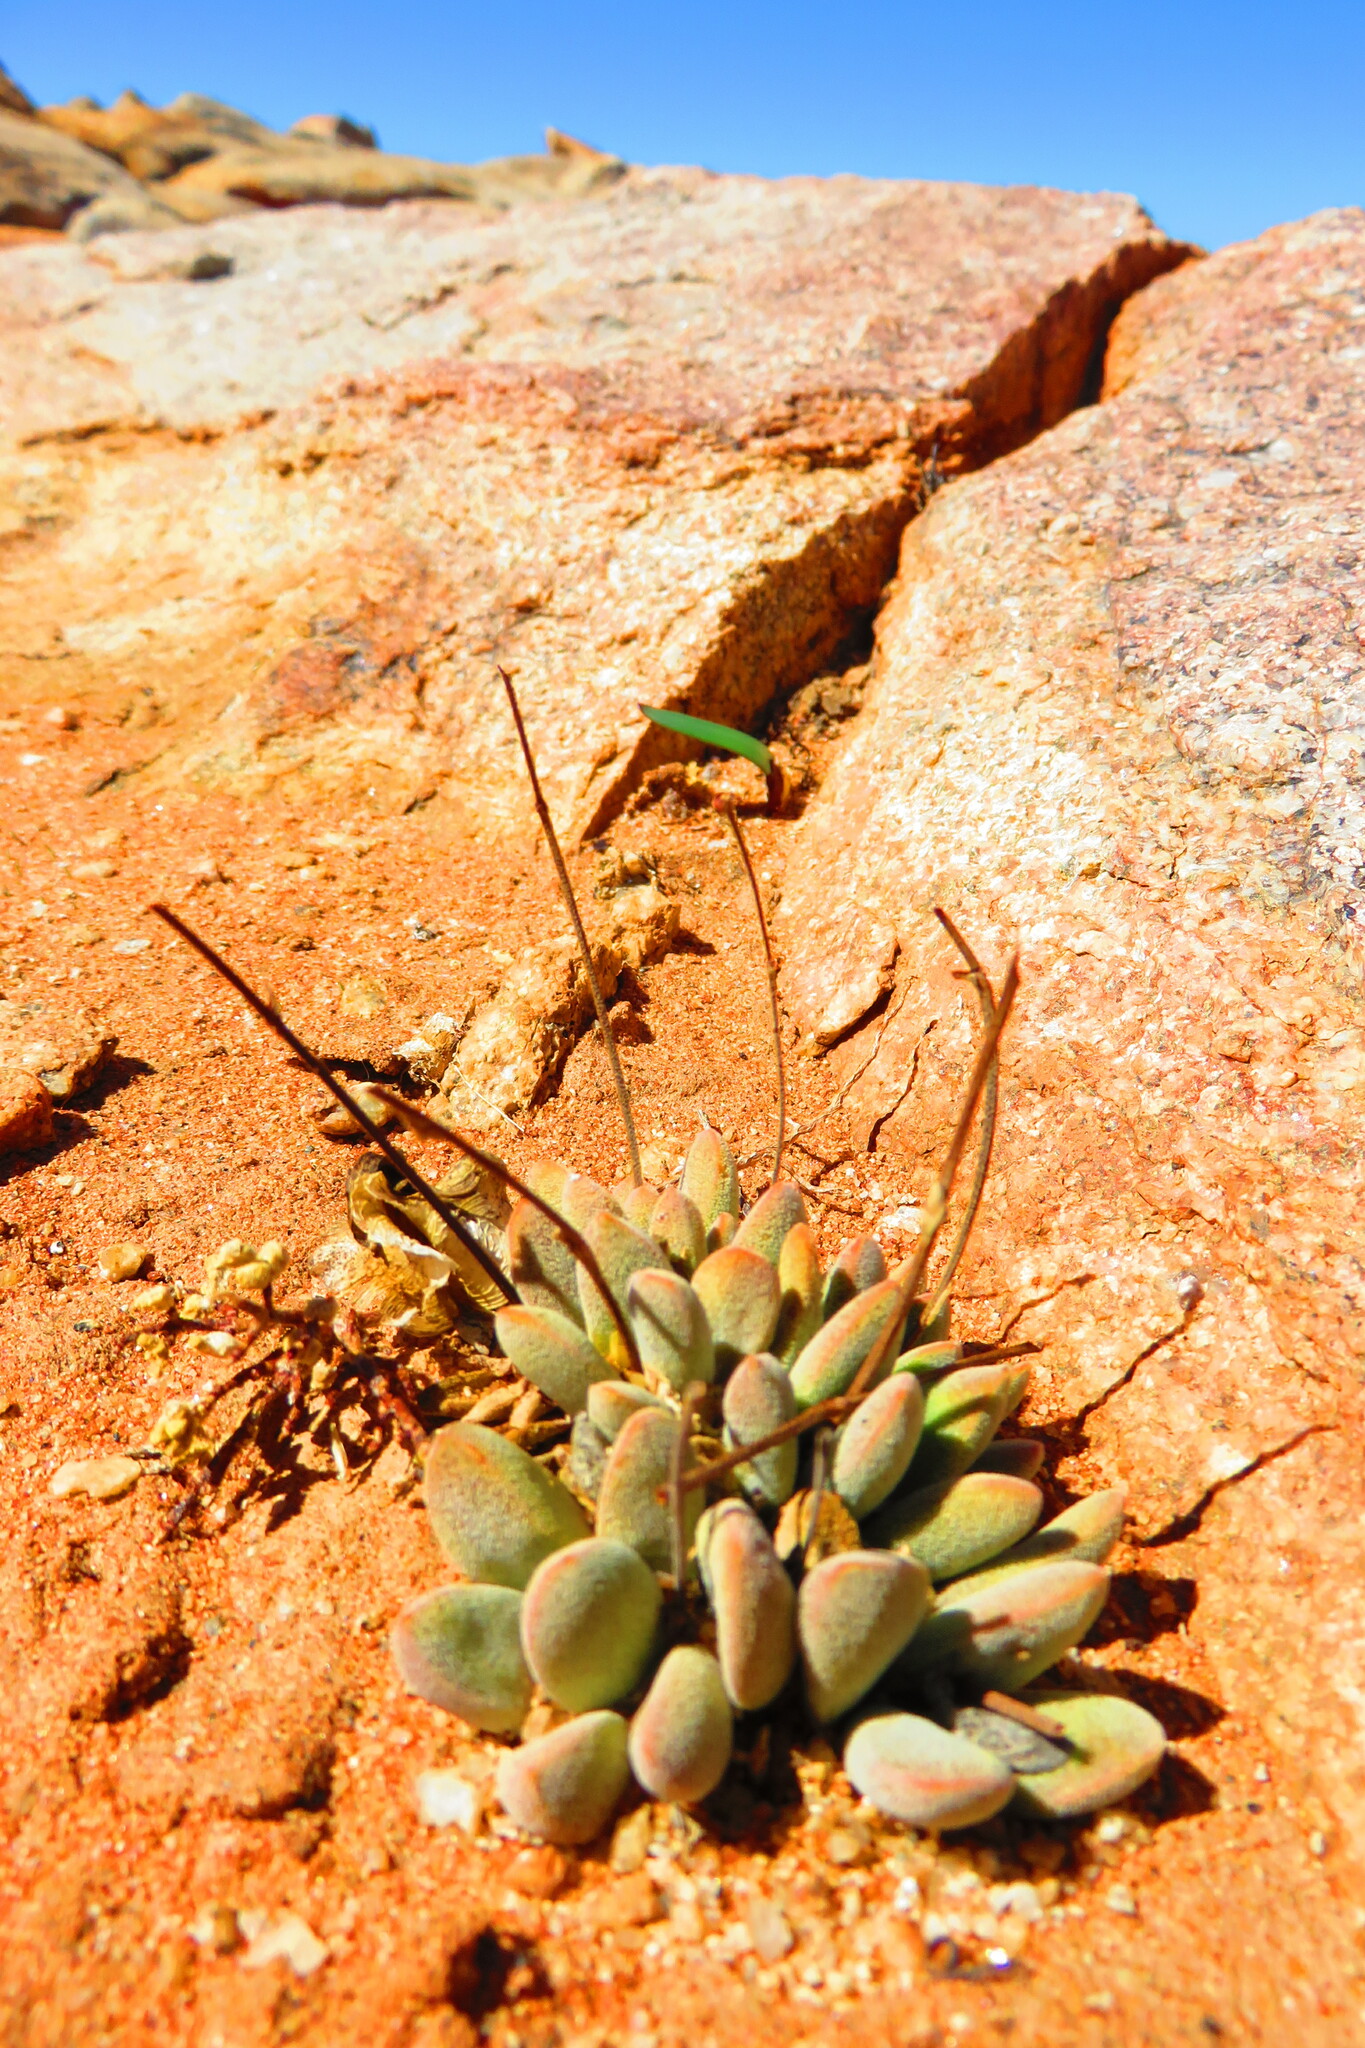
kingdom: Plantae
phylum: Tracheophyta
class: Magnoliopsida
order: Saxifragales
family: Crassulaceae
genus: Crassula
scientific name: Crassula cotyledonis
